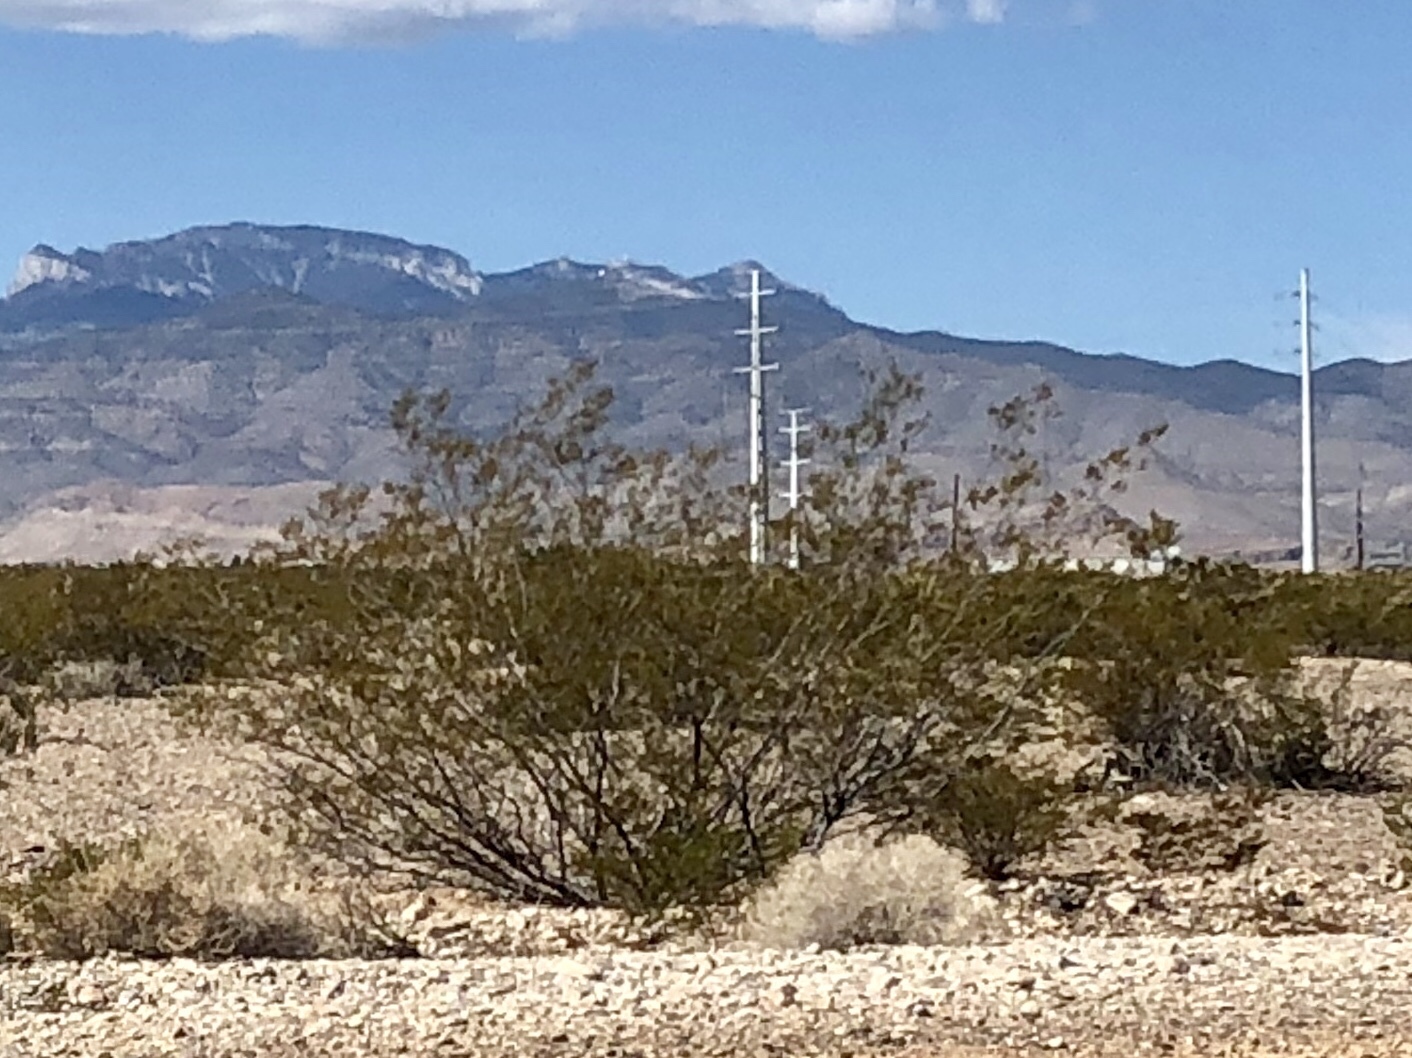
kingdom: Plantae
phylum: Tracheophyta
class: Magnoliopsida
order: Zygophyllales
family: Zygophyllaceae
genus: Larrea
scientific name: Larrea tridentata
